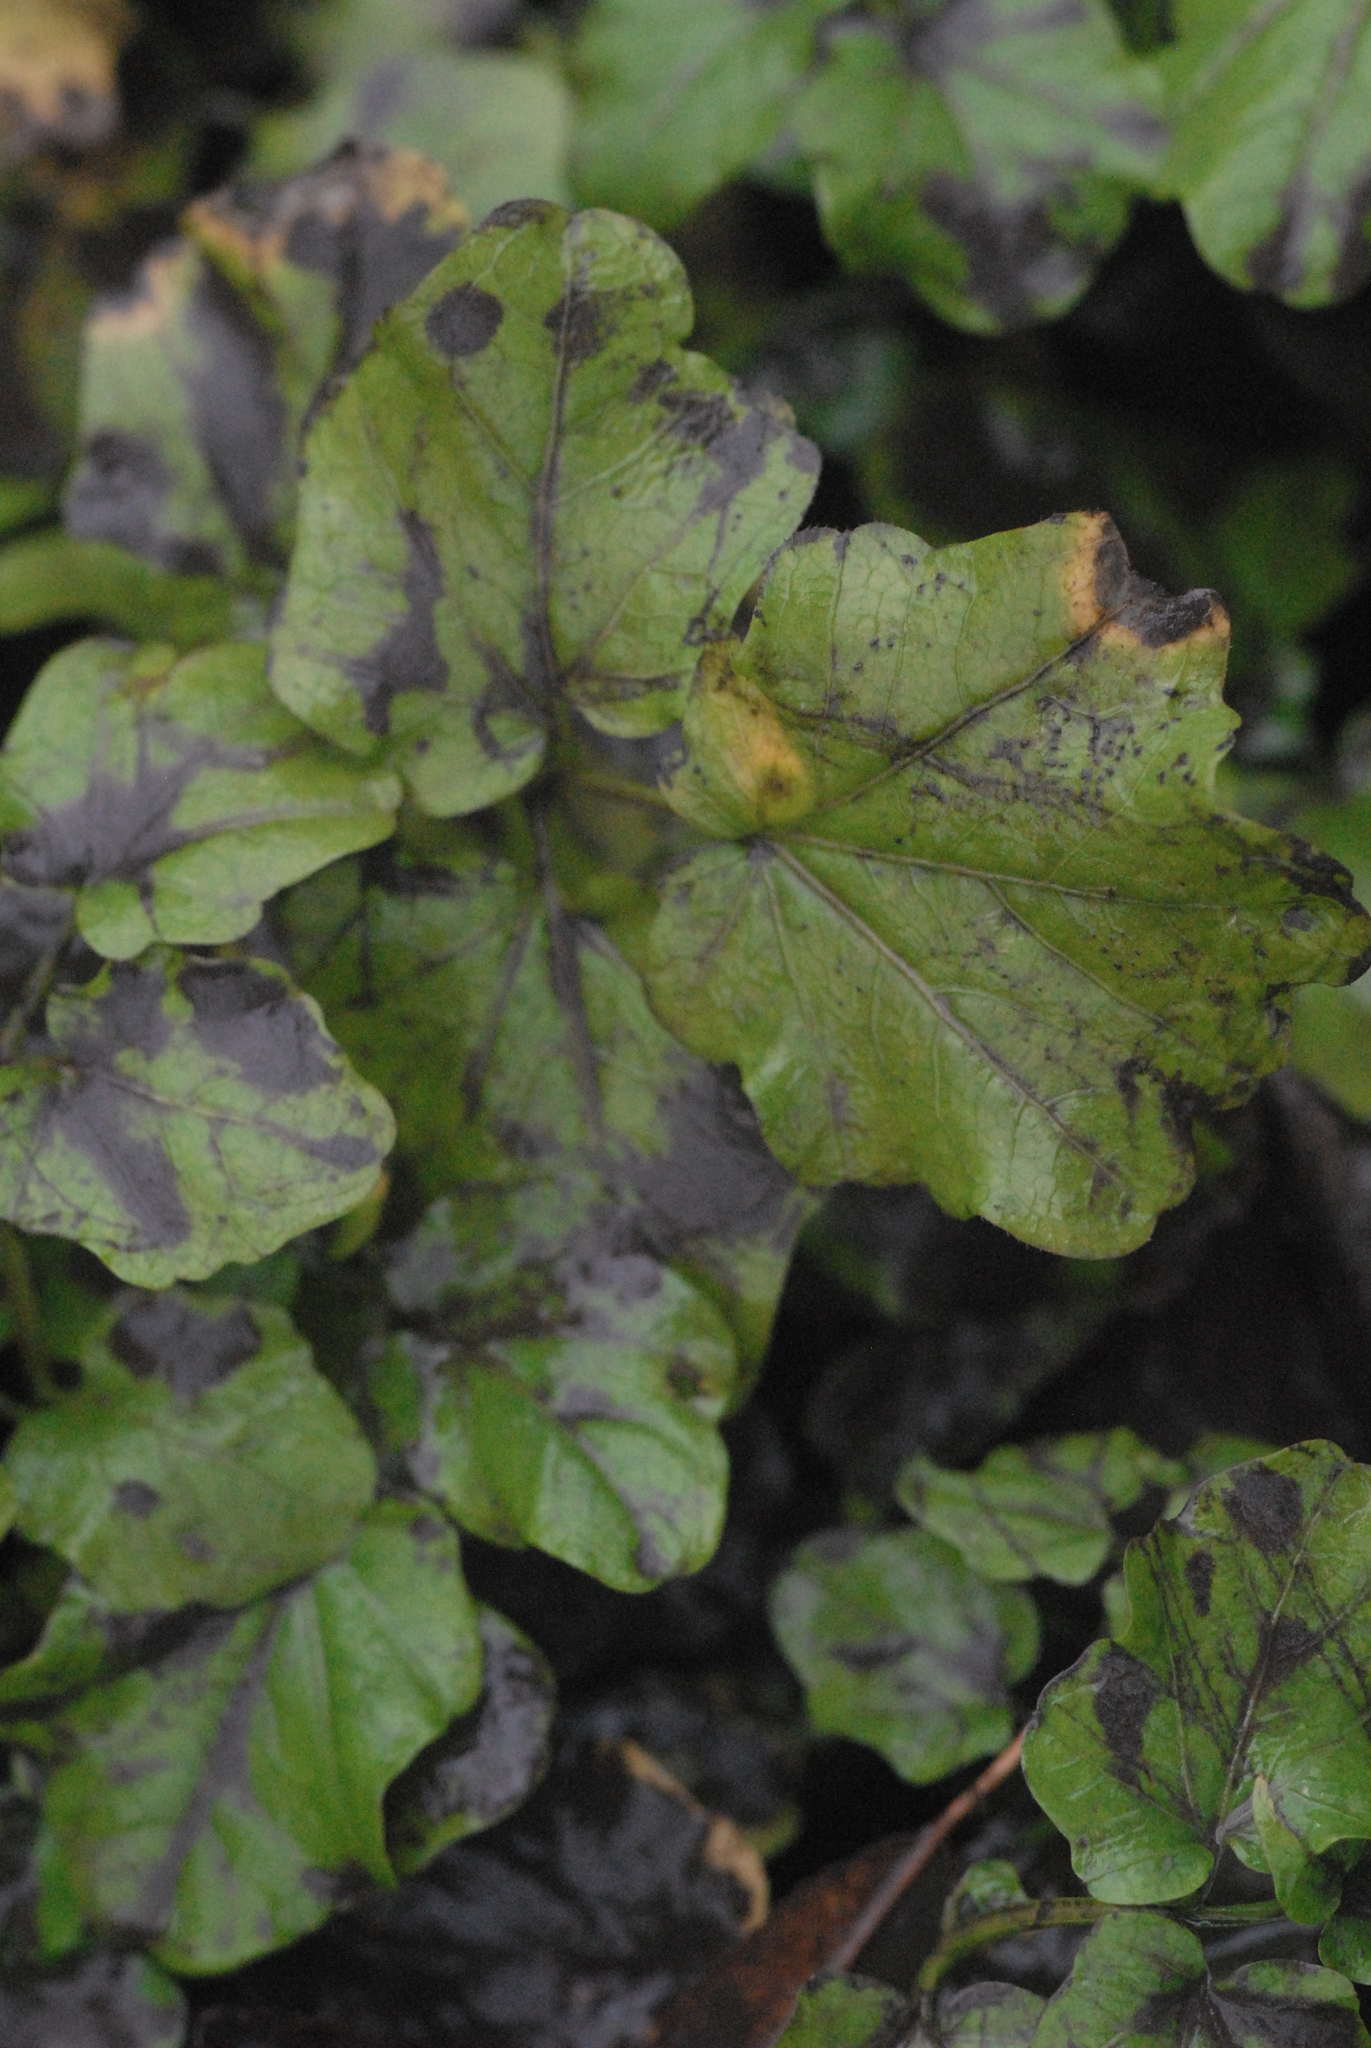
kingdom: Plantae
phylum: Tracheophyta
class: Magnoliopsida
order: Brassicales
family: Brassicaceae
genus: Cardamine
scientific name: Cardamine amara
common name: Large bitter-cress
